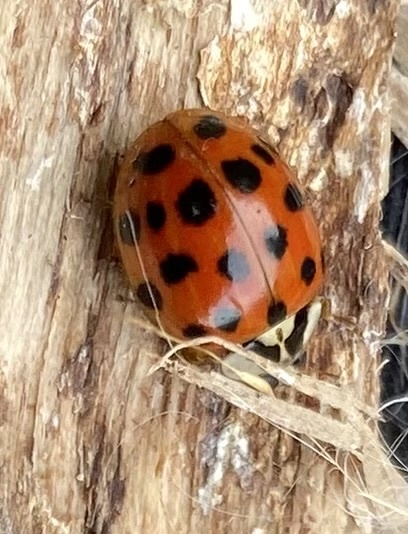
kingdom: Animalia
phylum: Arthropoda
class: Insecta
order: Coleoptera
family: Coccinellidae
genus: Harmonia
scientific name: Harmonia axyridis
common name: Harlequin ladybird
